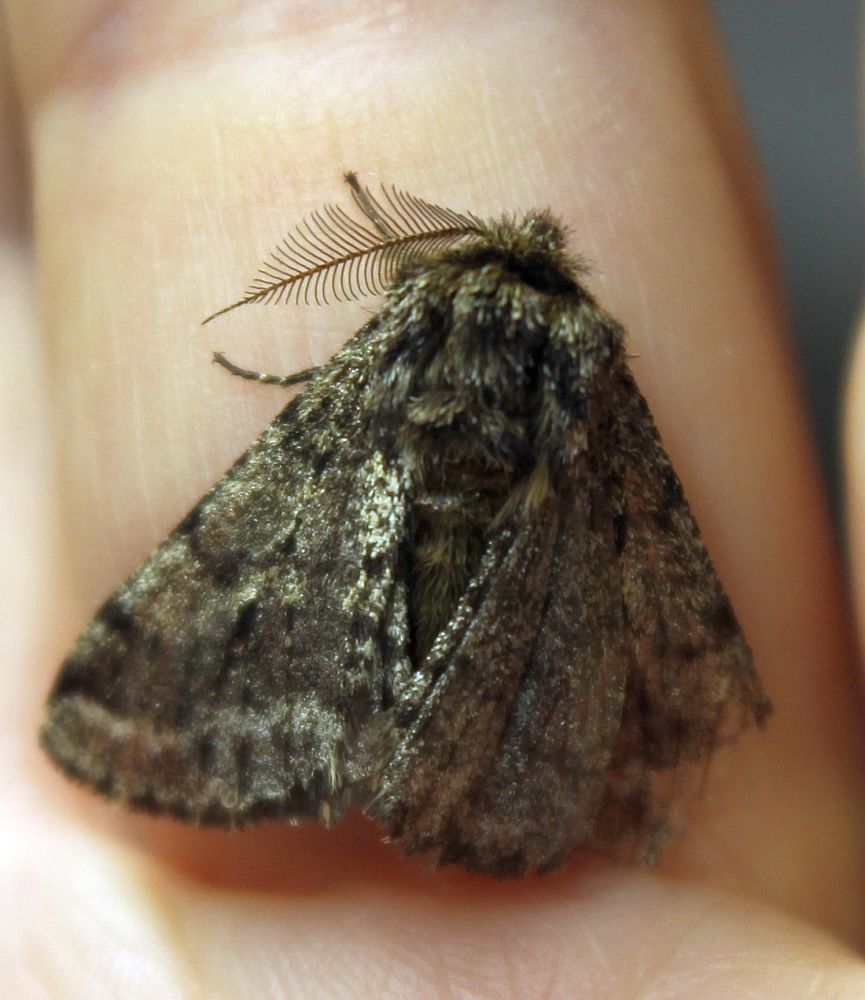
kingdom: Animalia
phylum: Arthropoda
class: Insecta
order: Lepidoptera
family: Geometridae
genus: Phigalia
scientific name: Phigalia pilosaria
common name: Pale brindled beauty
